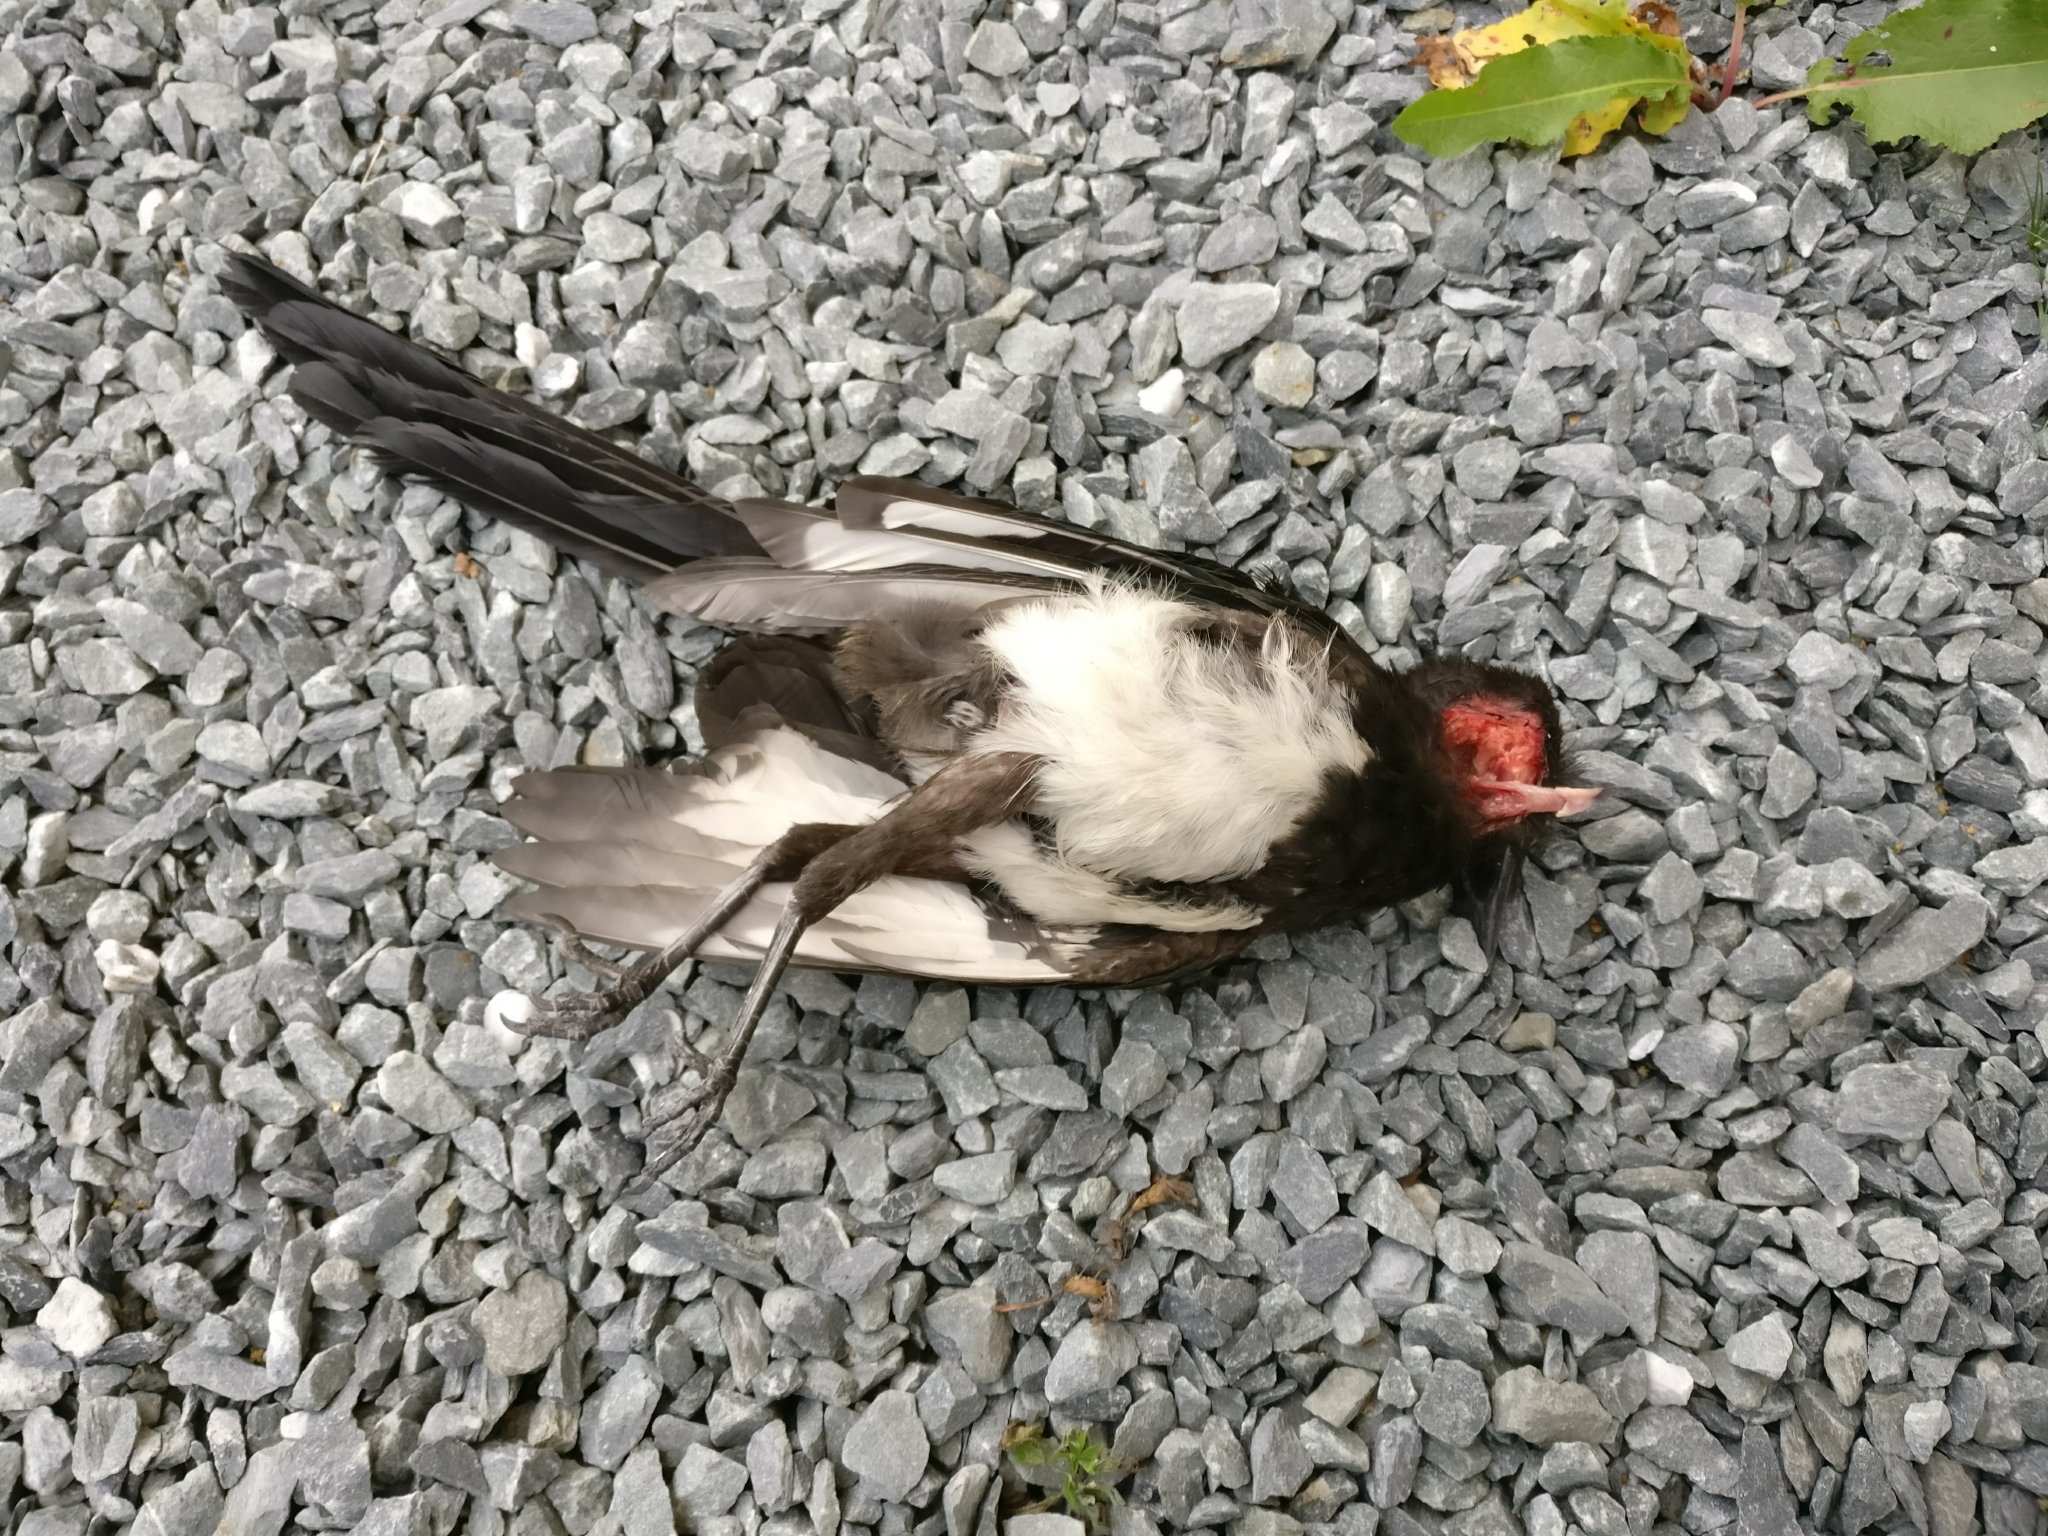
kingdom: Animalia
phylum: Chordata
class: Aves
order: Passeriformes
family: Corvidae
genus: Pica
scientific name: Pica pica
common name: Eurasian magpie
